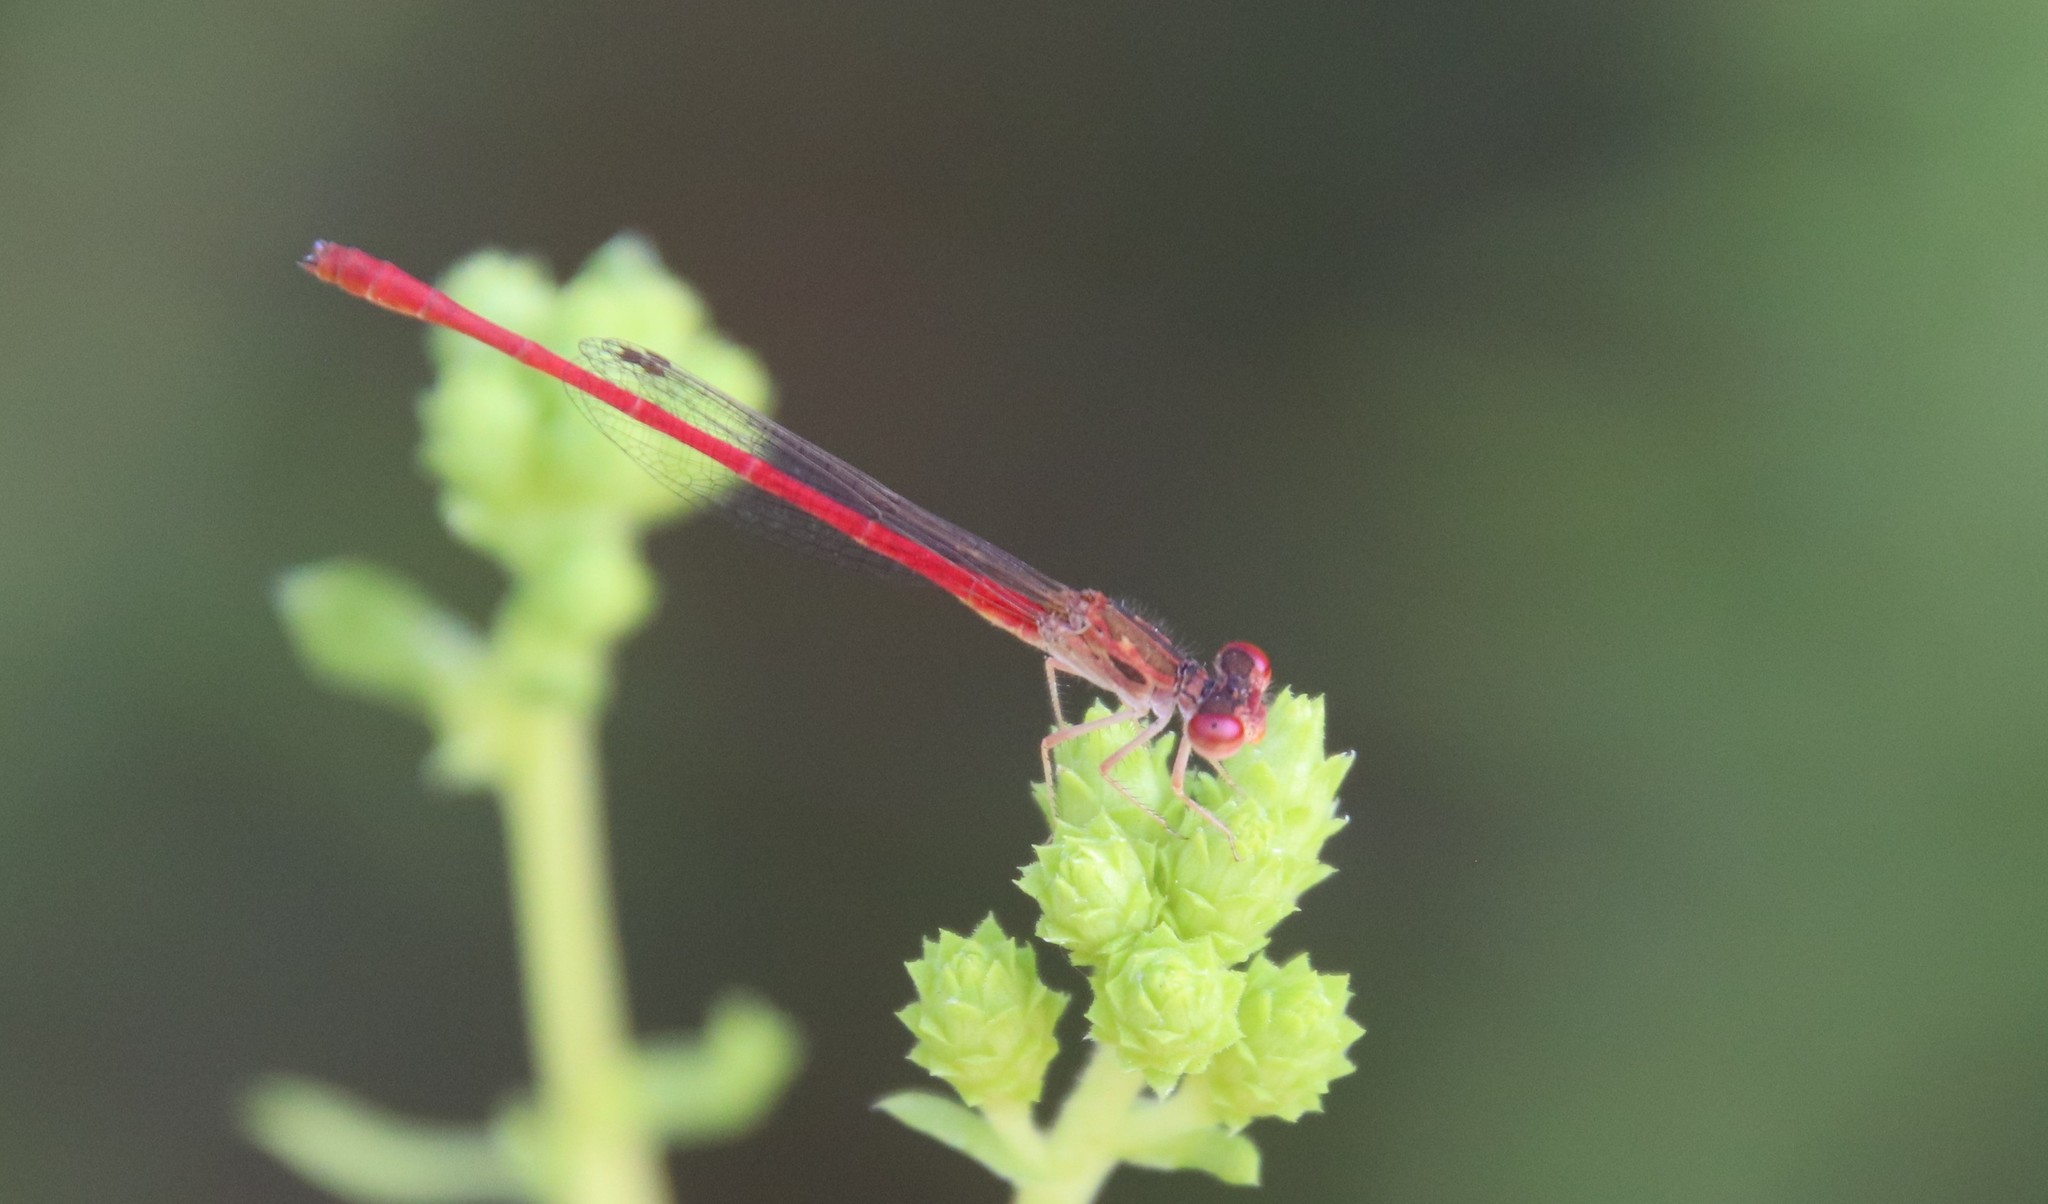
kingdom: Animalia
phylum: Arthropoda
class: Insecta
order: Odonata
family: Coenagrionidae
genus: Telebasis
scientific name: Telebasis salva
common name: Desert firetail
